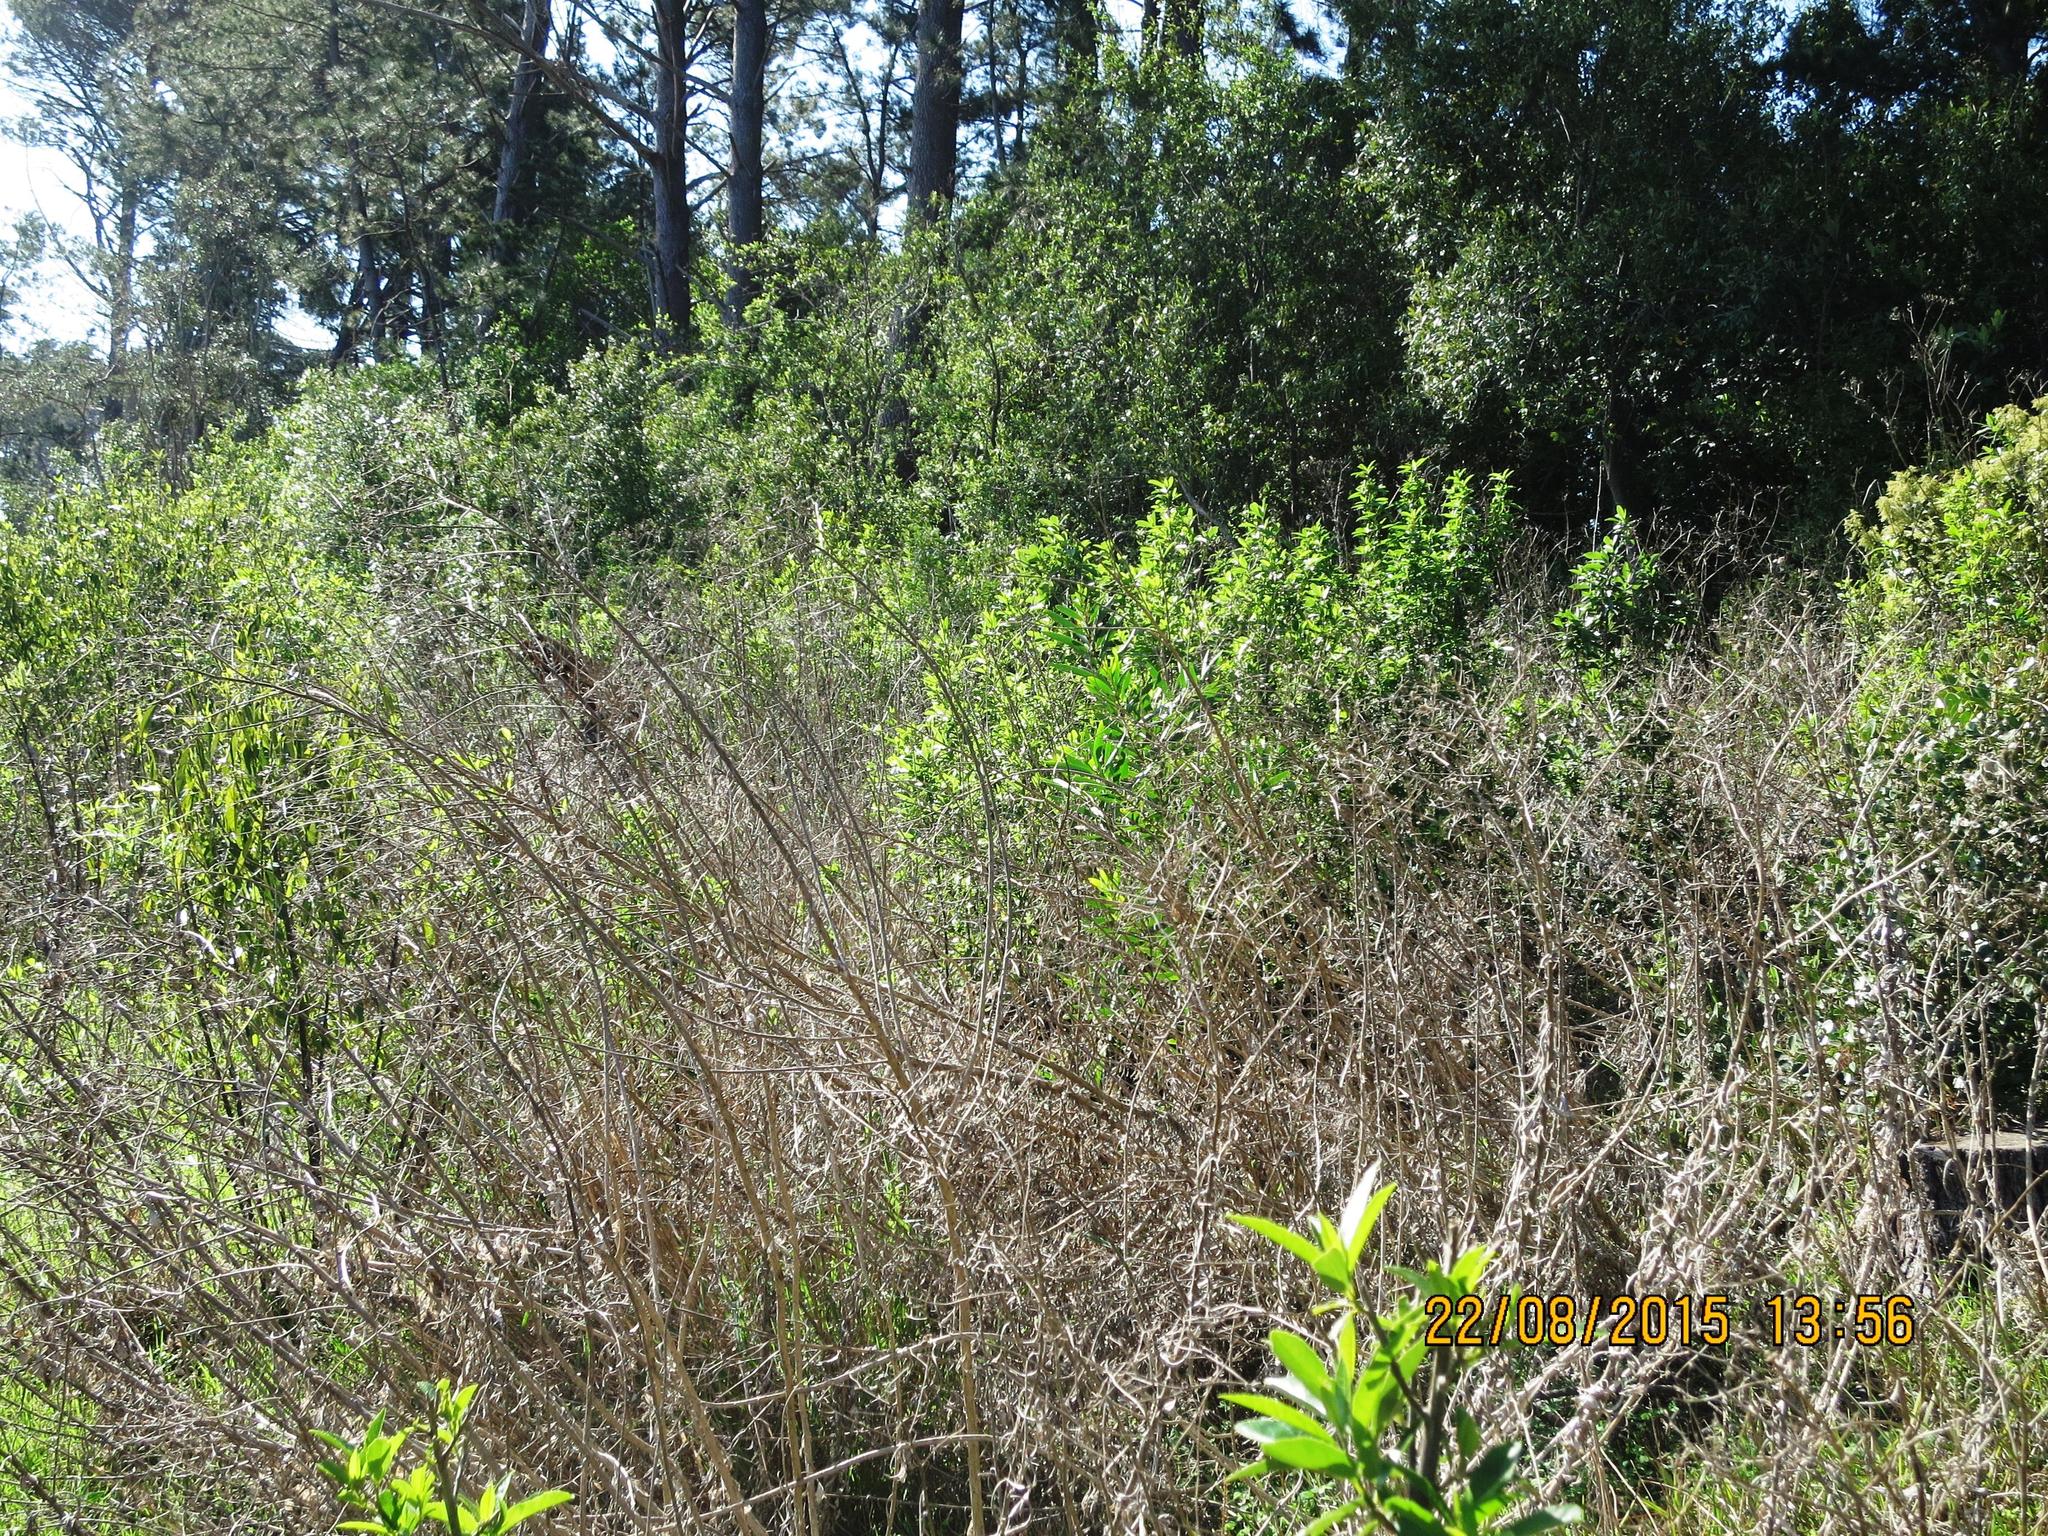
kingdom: Plantae
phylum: Tracheophyta
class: Magnoliopsida
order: Asterales
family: Asteraceae
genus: Senecio
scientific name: Senecio pterophorus
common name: Shoddy ragwort
